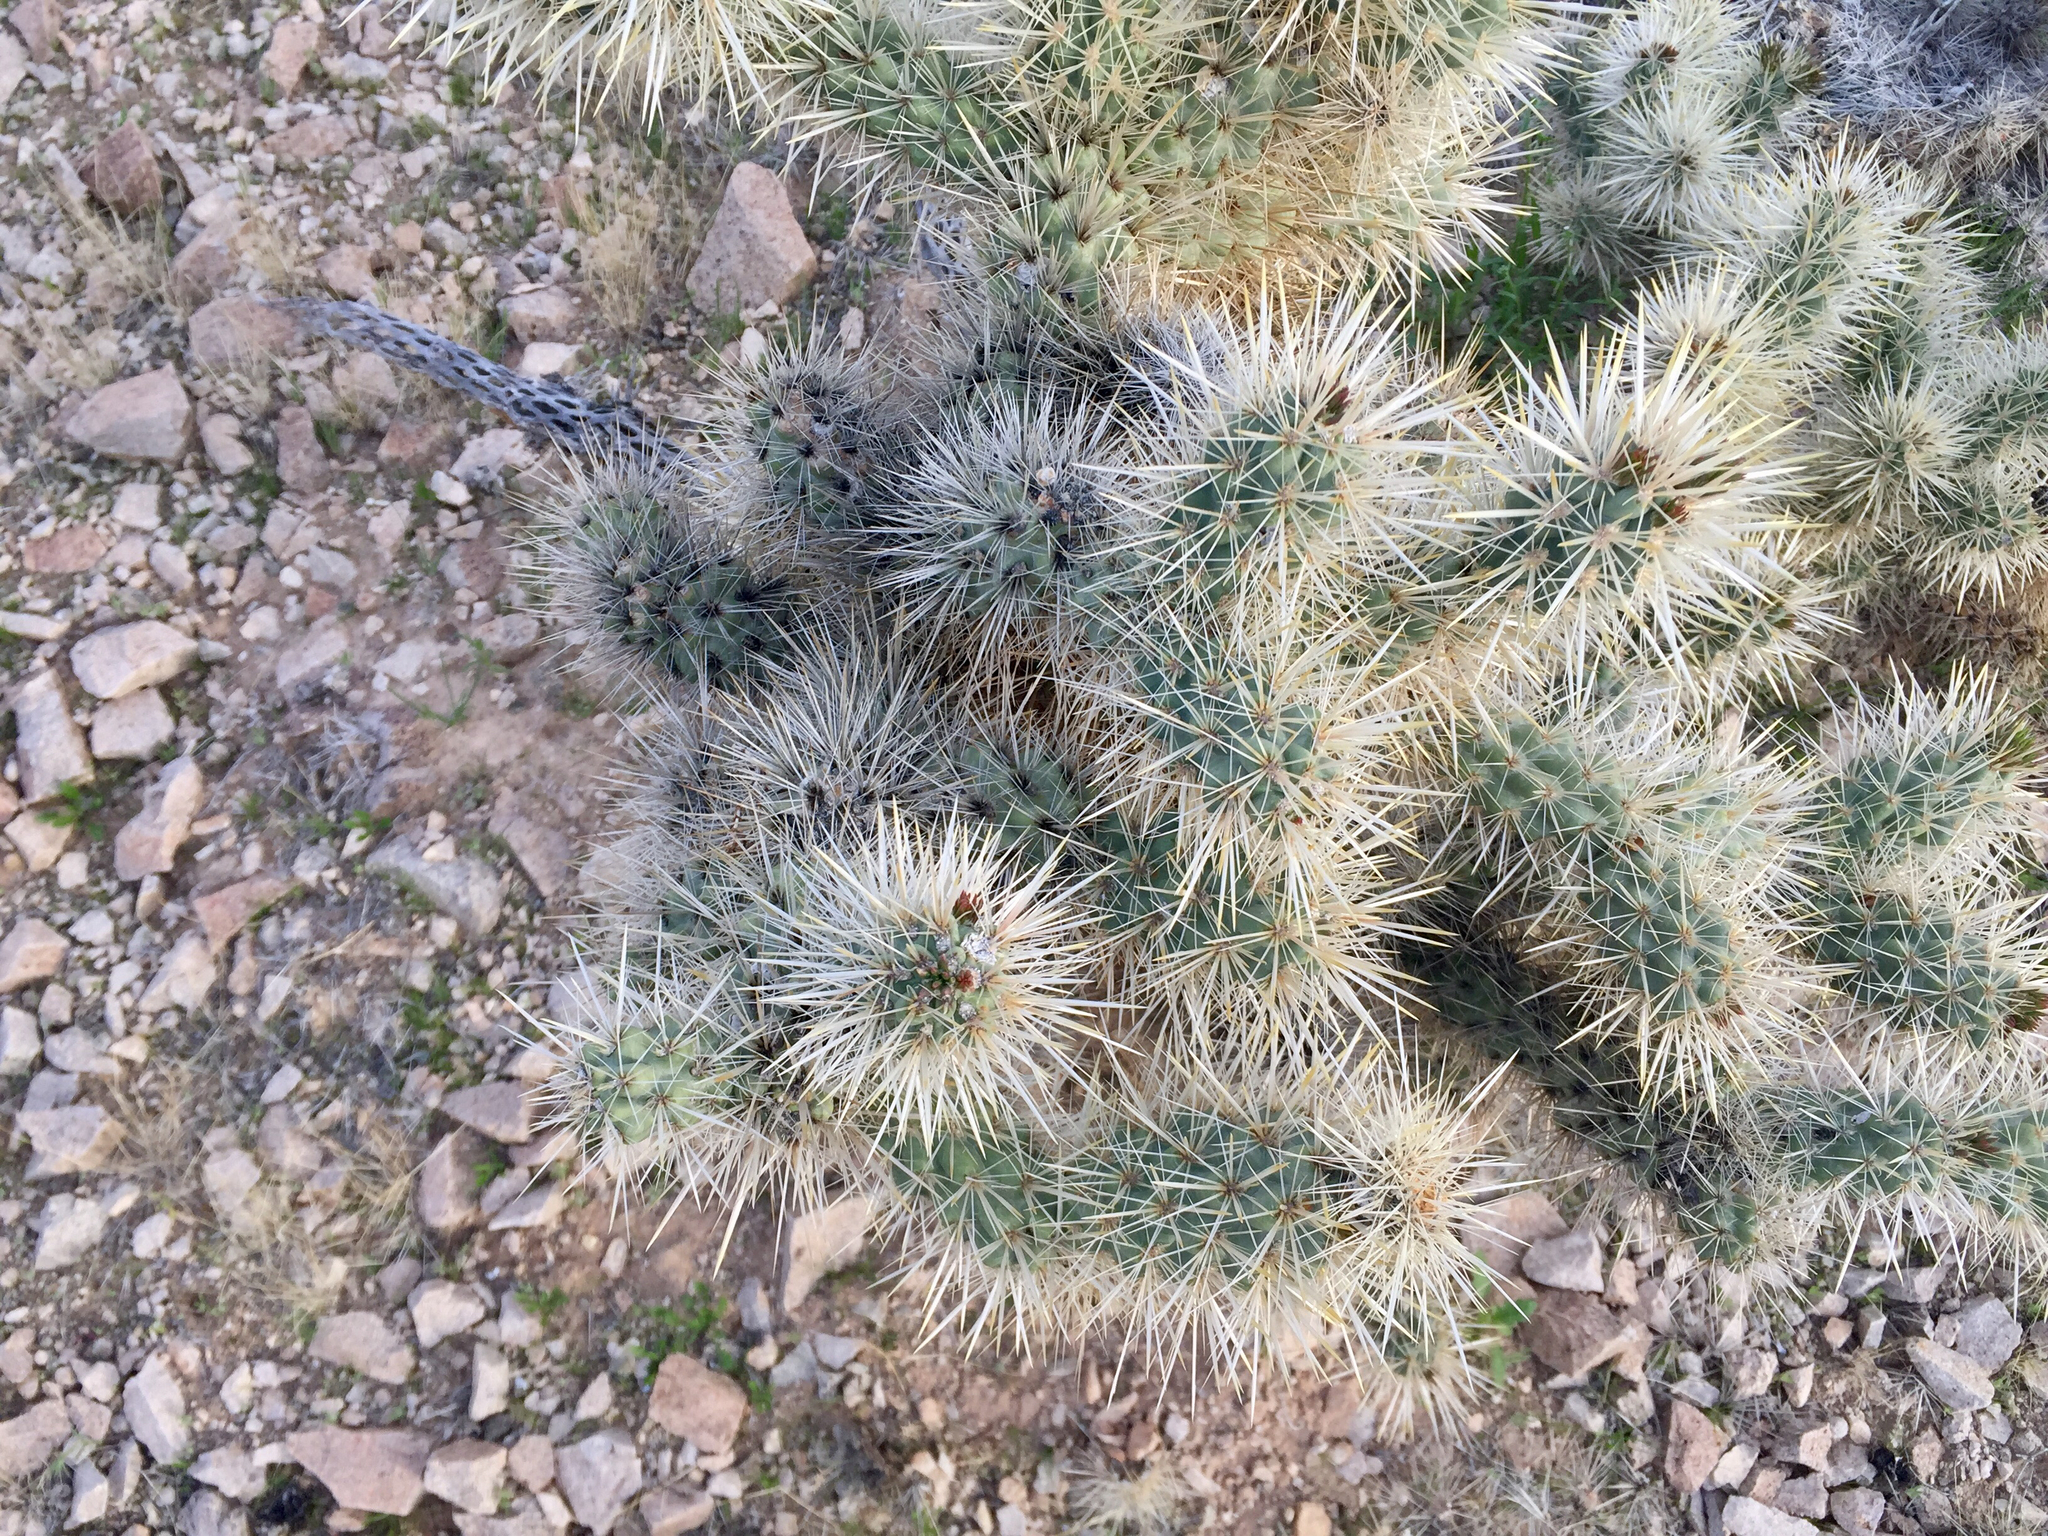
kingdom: Plantae
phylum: Tracheophyta
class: Magnoliopsida
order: Caryophyllales
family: Cactaceae
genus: Cylindropuntia
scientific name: Cylindropuntia echinocarpa
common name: Ground cholla
